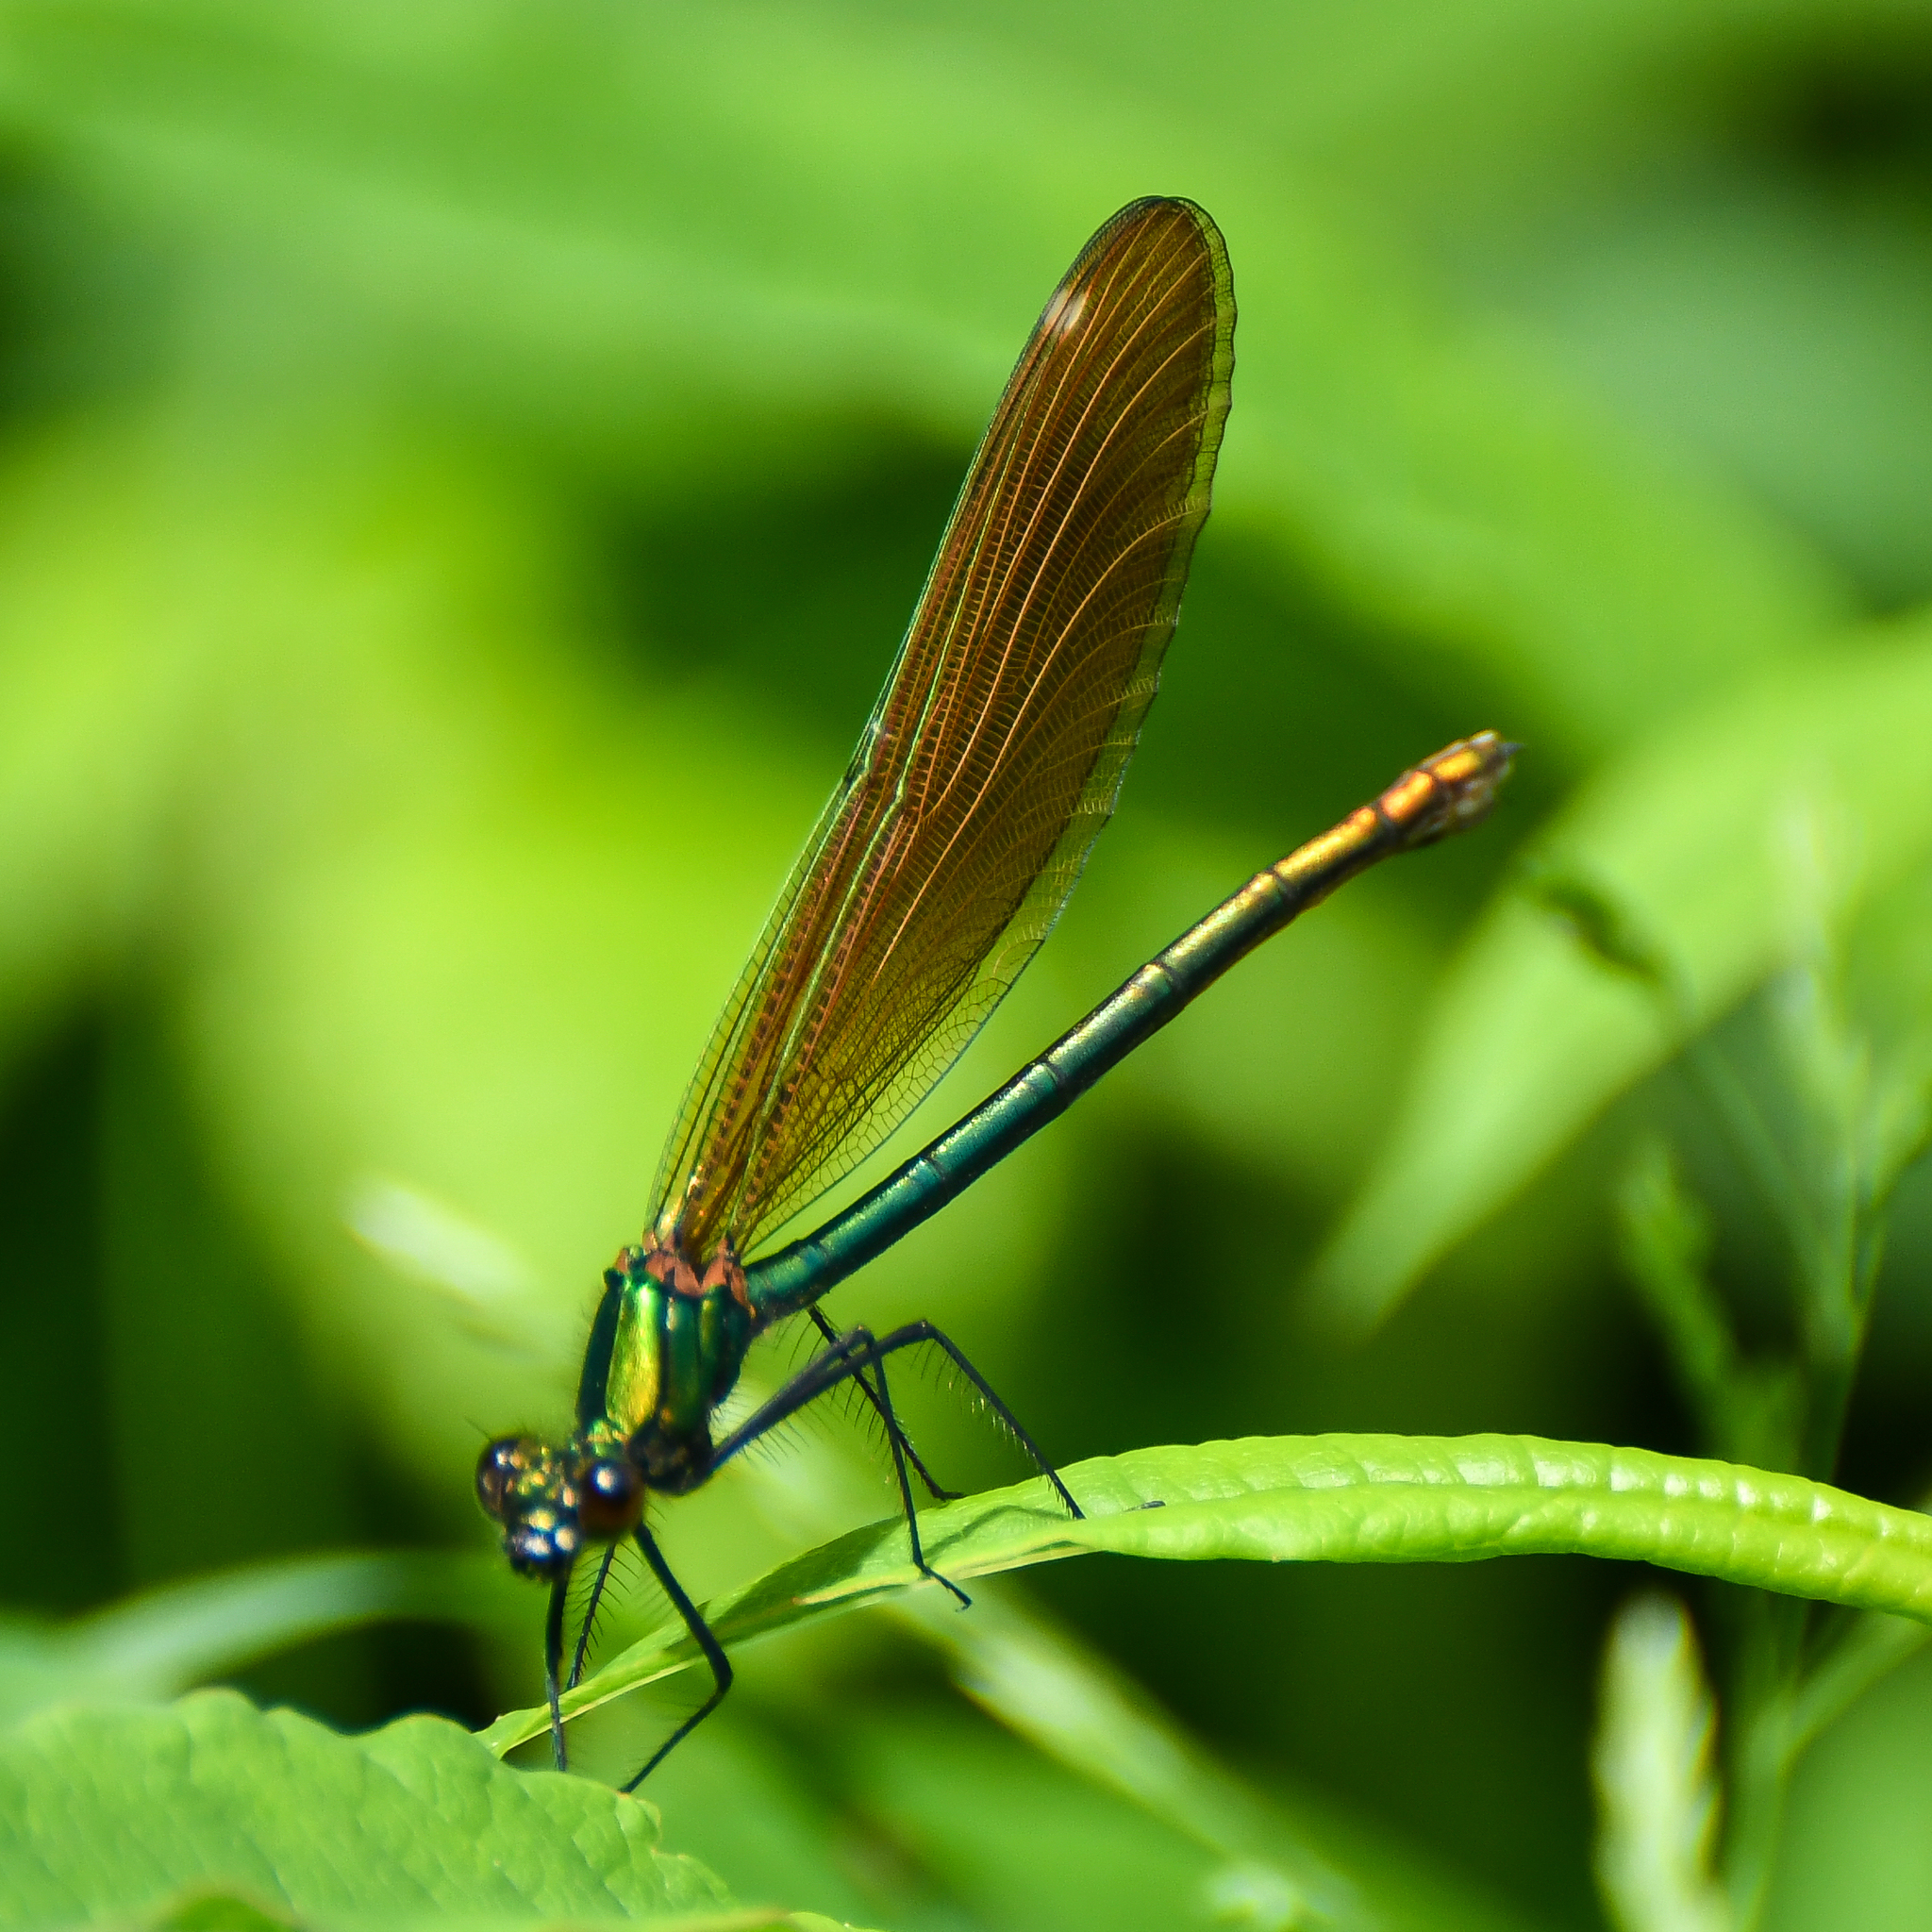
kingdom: Animalia
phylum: Arthropoda
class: Insecta
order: Odonata
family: Calopterygidae
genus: Calopteryx
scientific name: Calopteryx virgo
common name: Beautiful demoiselle
